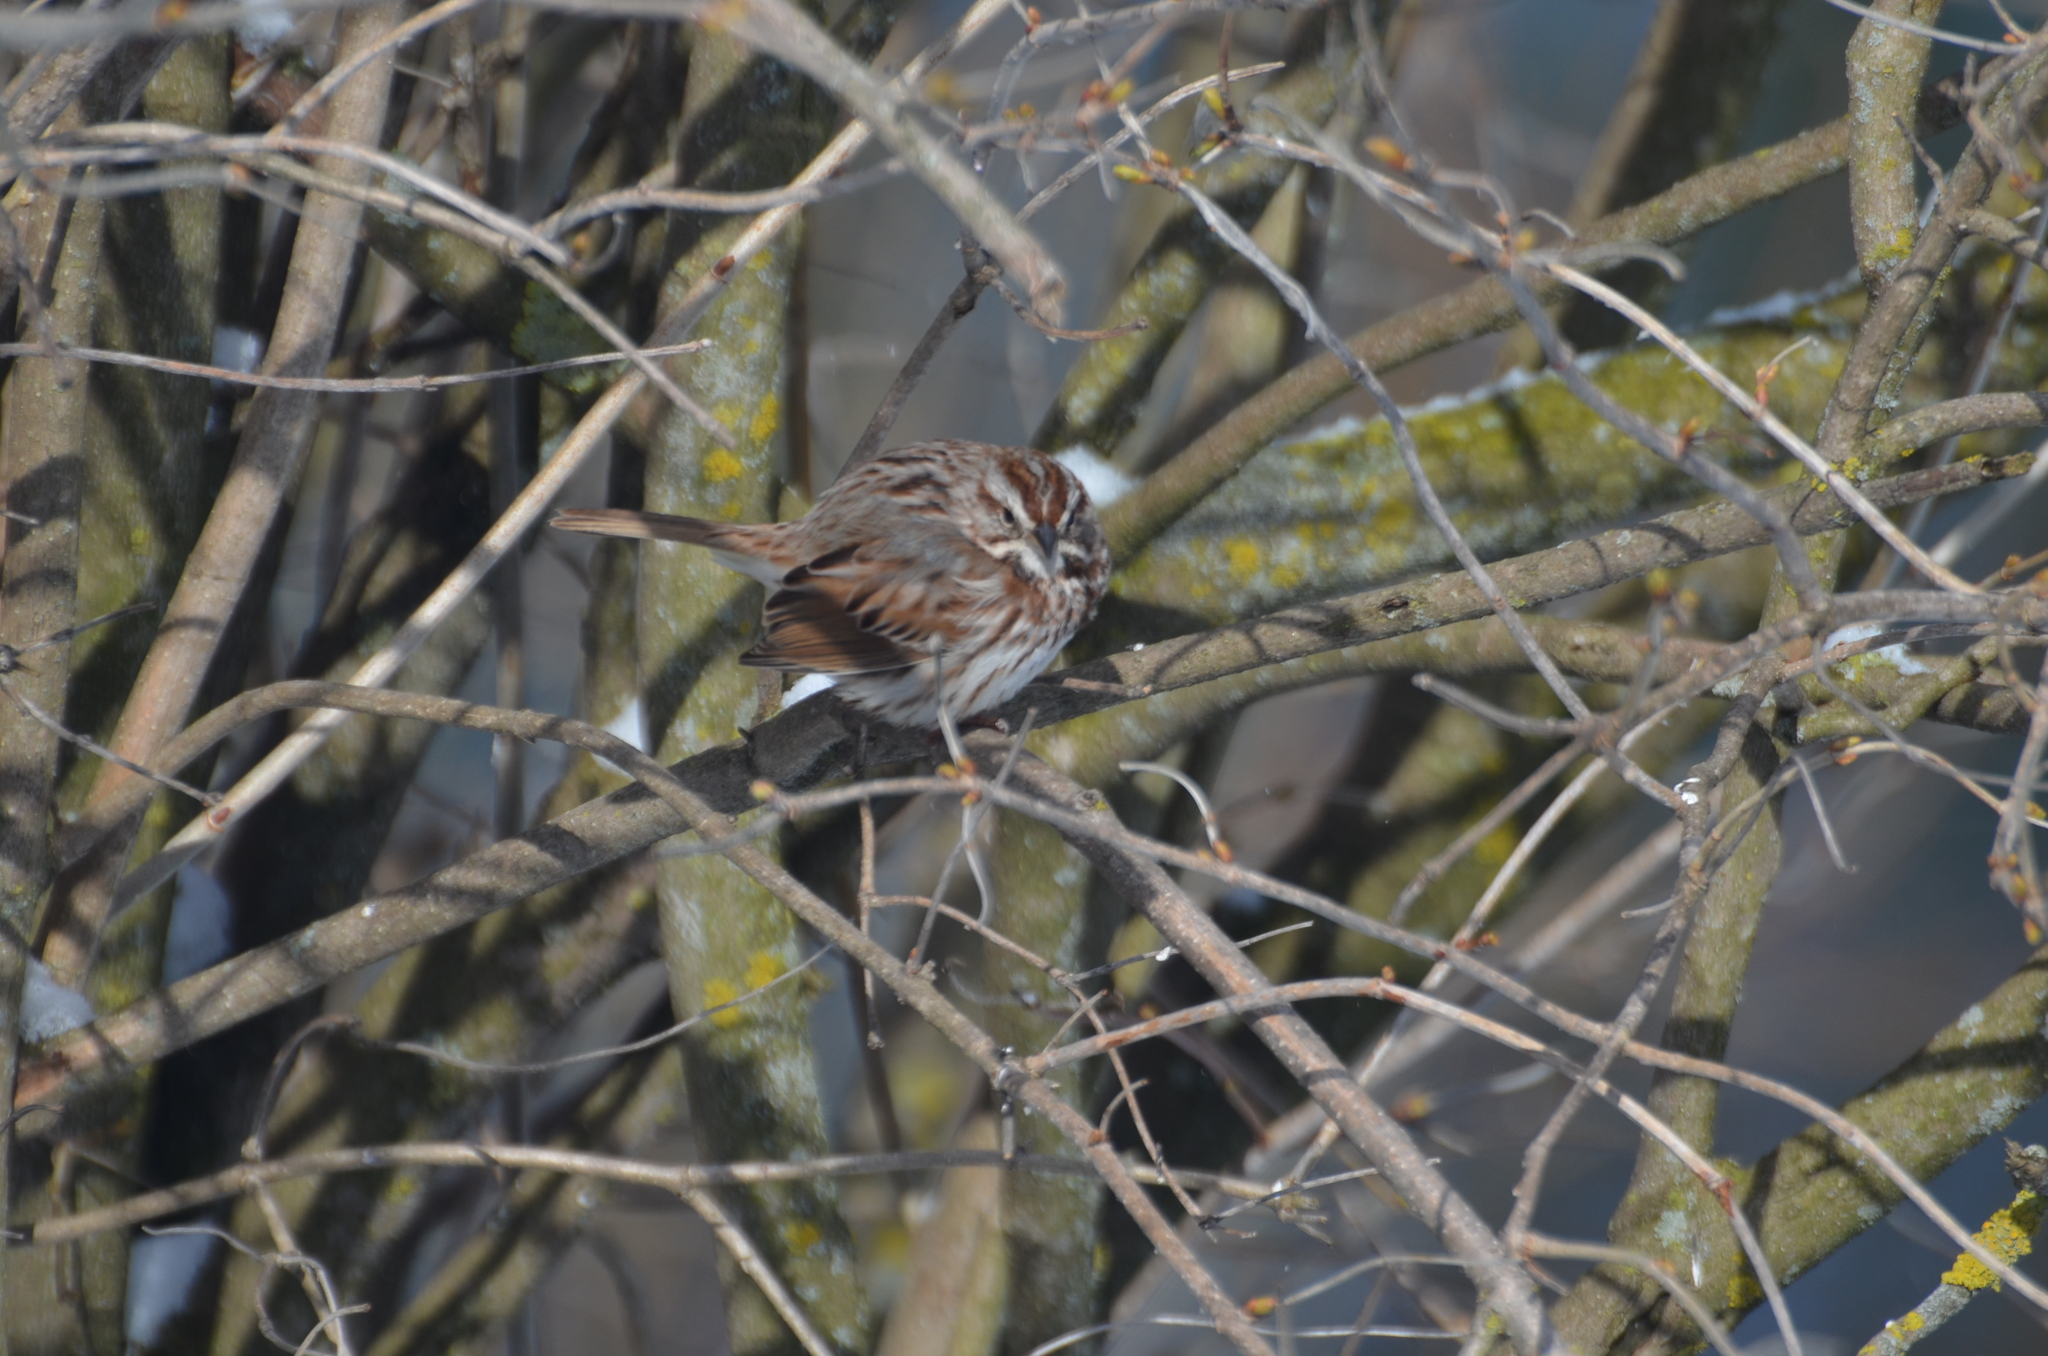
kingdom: Animalia
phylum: Chordata
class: Aves
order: Passeriformes
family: Passerellidae
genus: Melospiza
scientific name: Melospiza melodia
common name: Song sparrow
